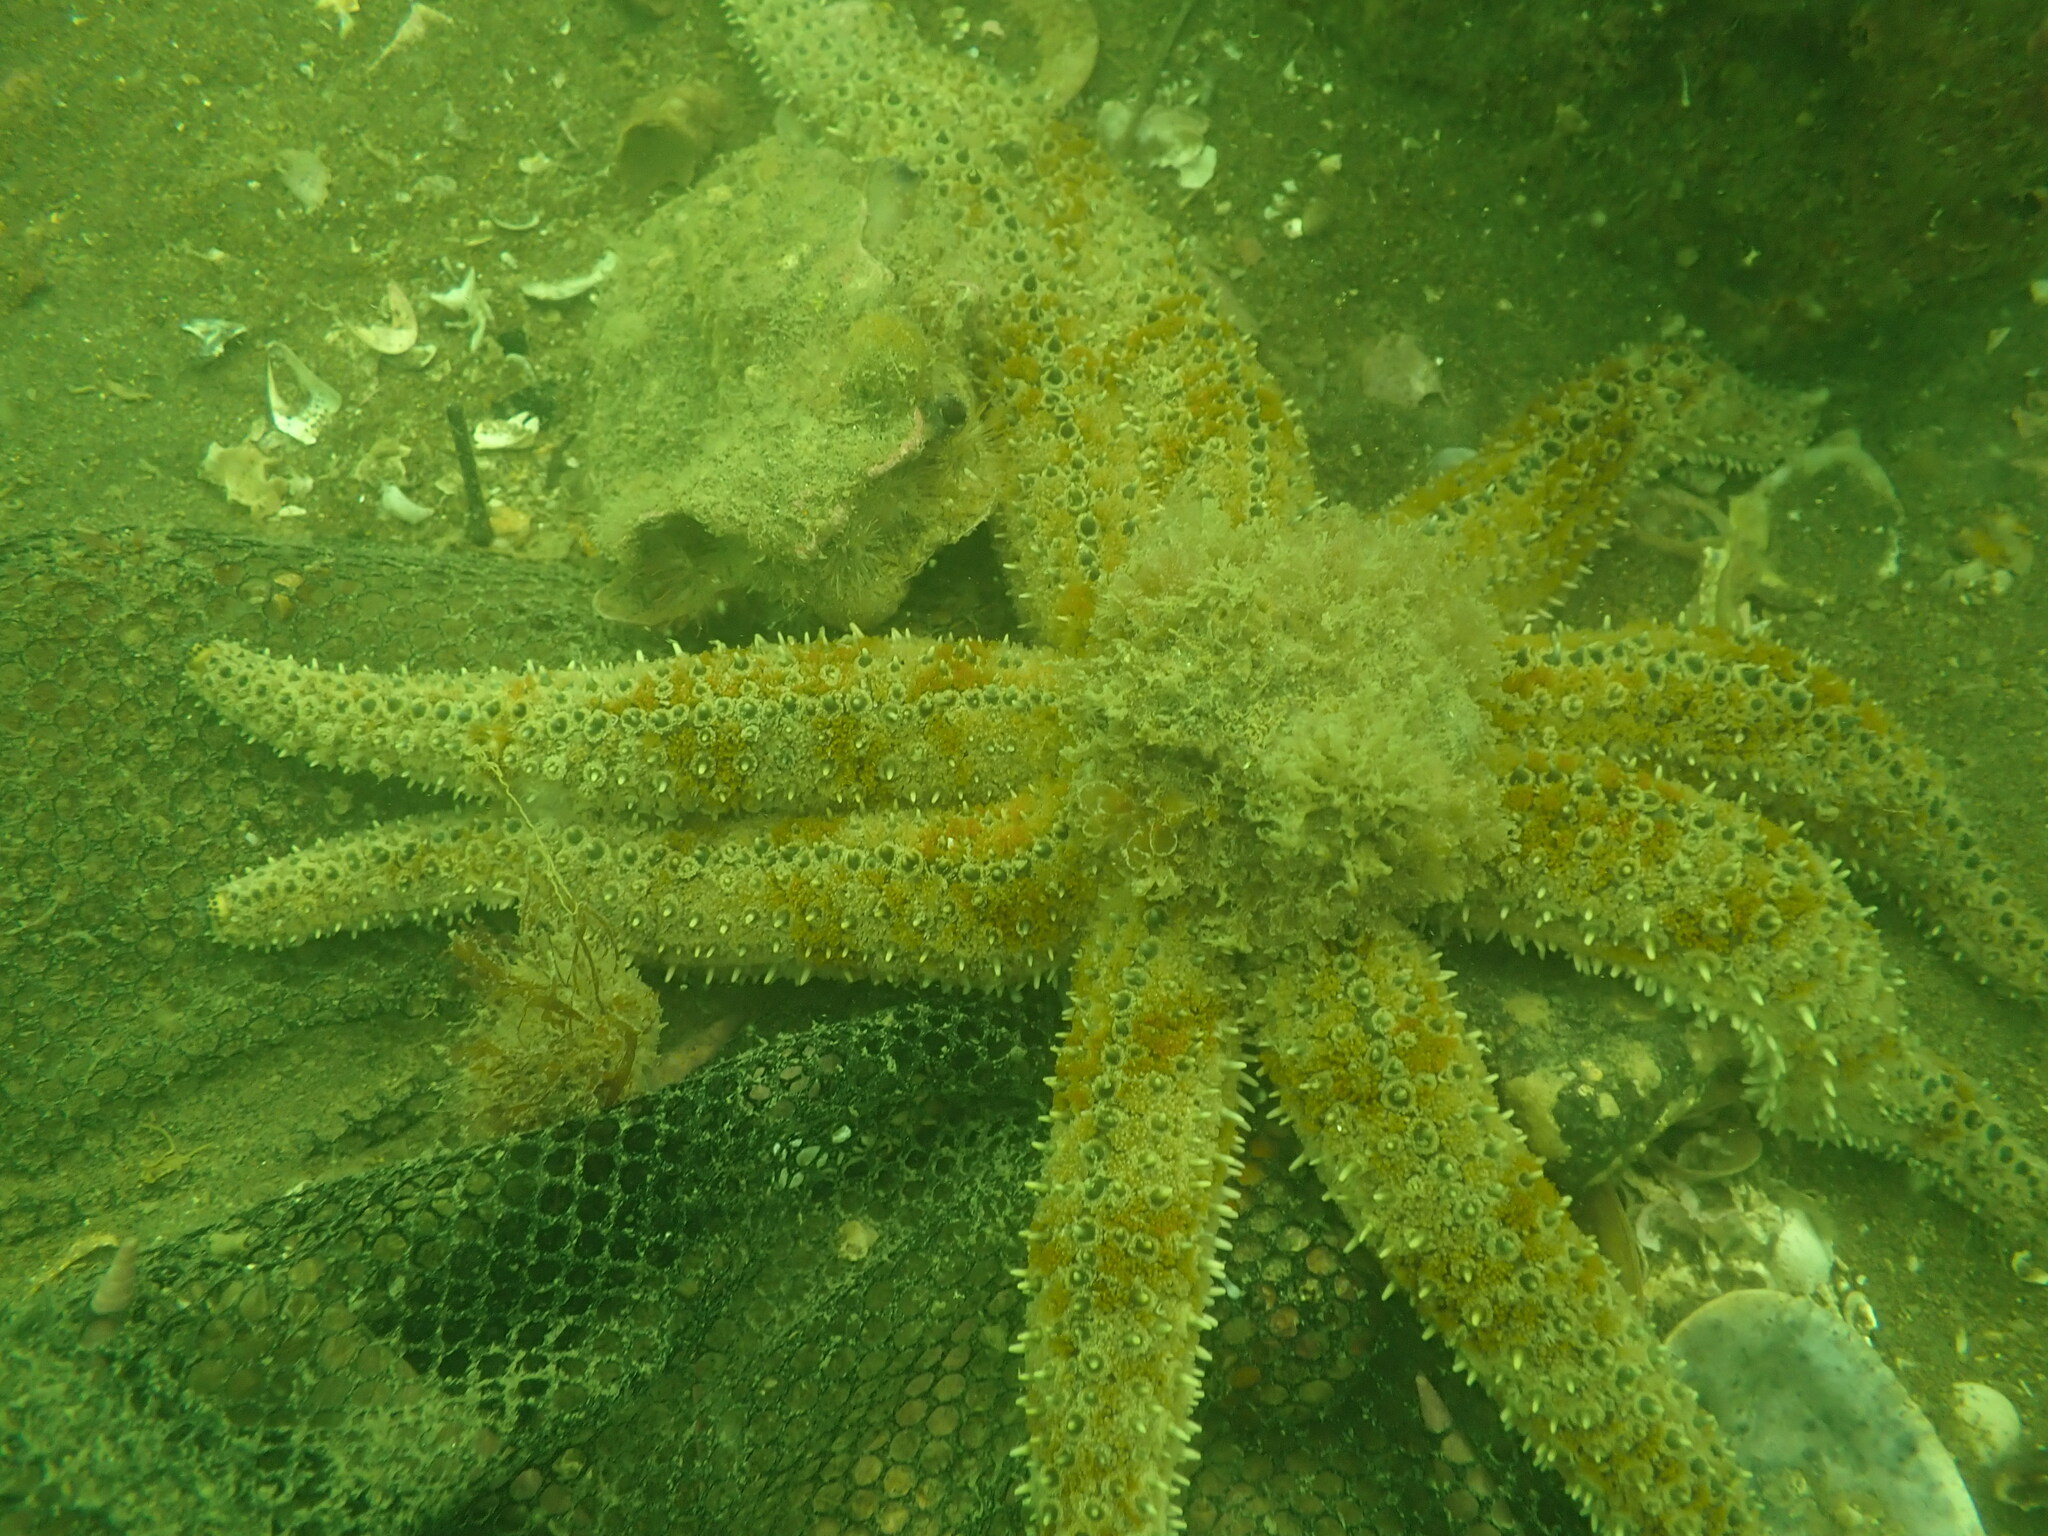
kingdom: Animalia
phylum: Echinodermata
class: Asteroidea
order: Forcipulatida
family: Asteriidae
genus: Coscinasterias
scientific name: Coscinasterias muricata
